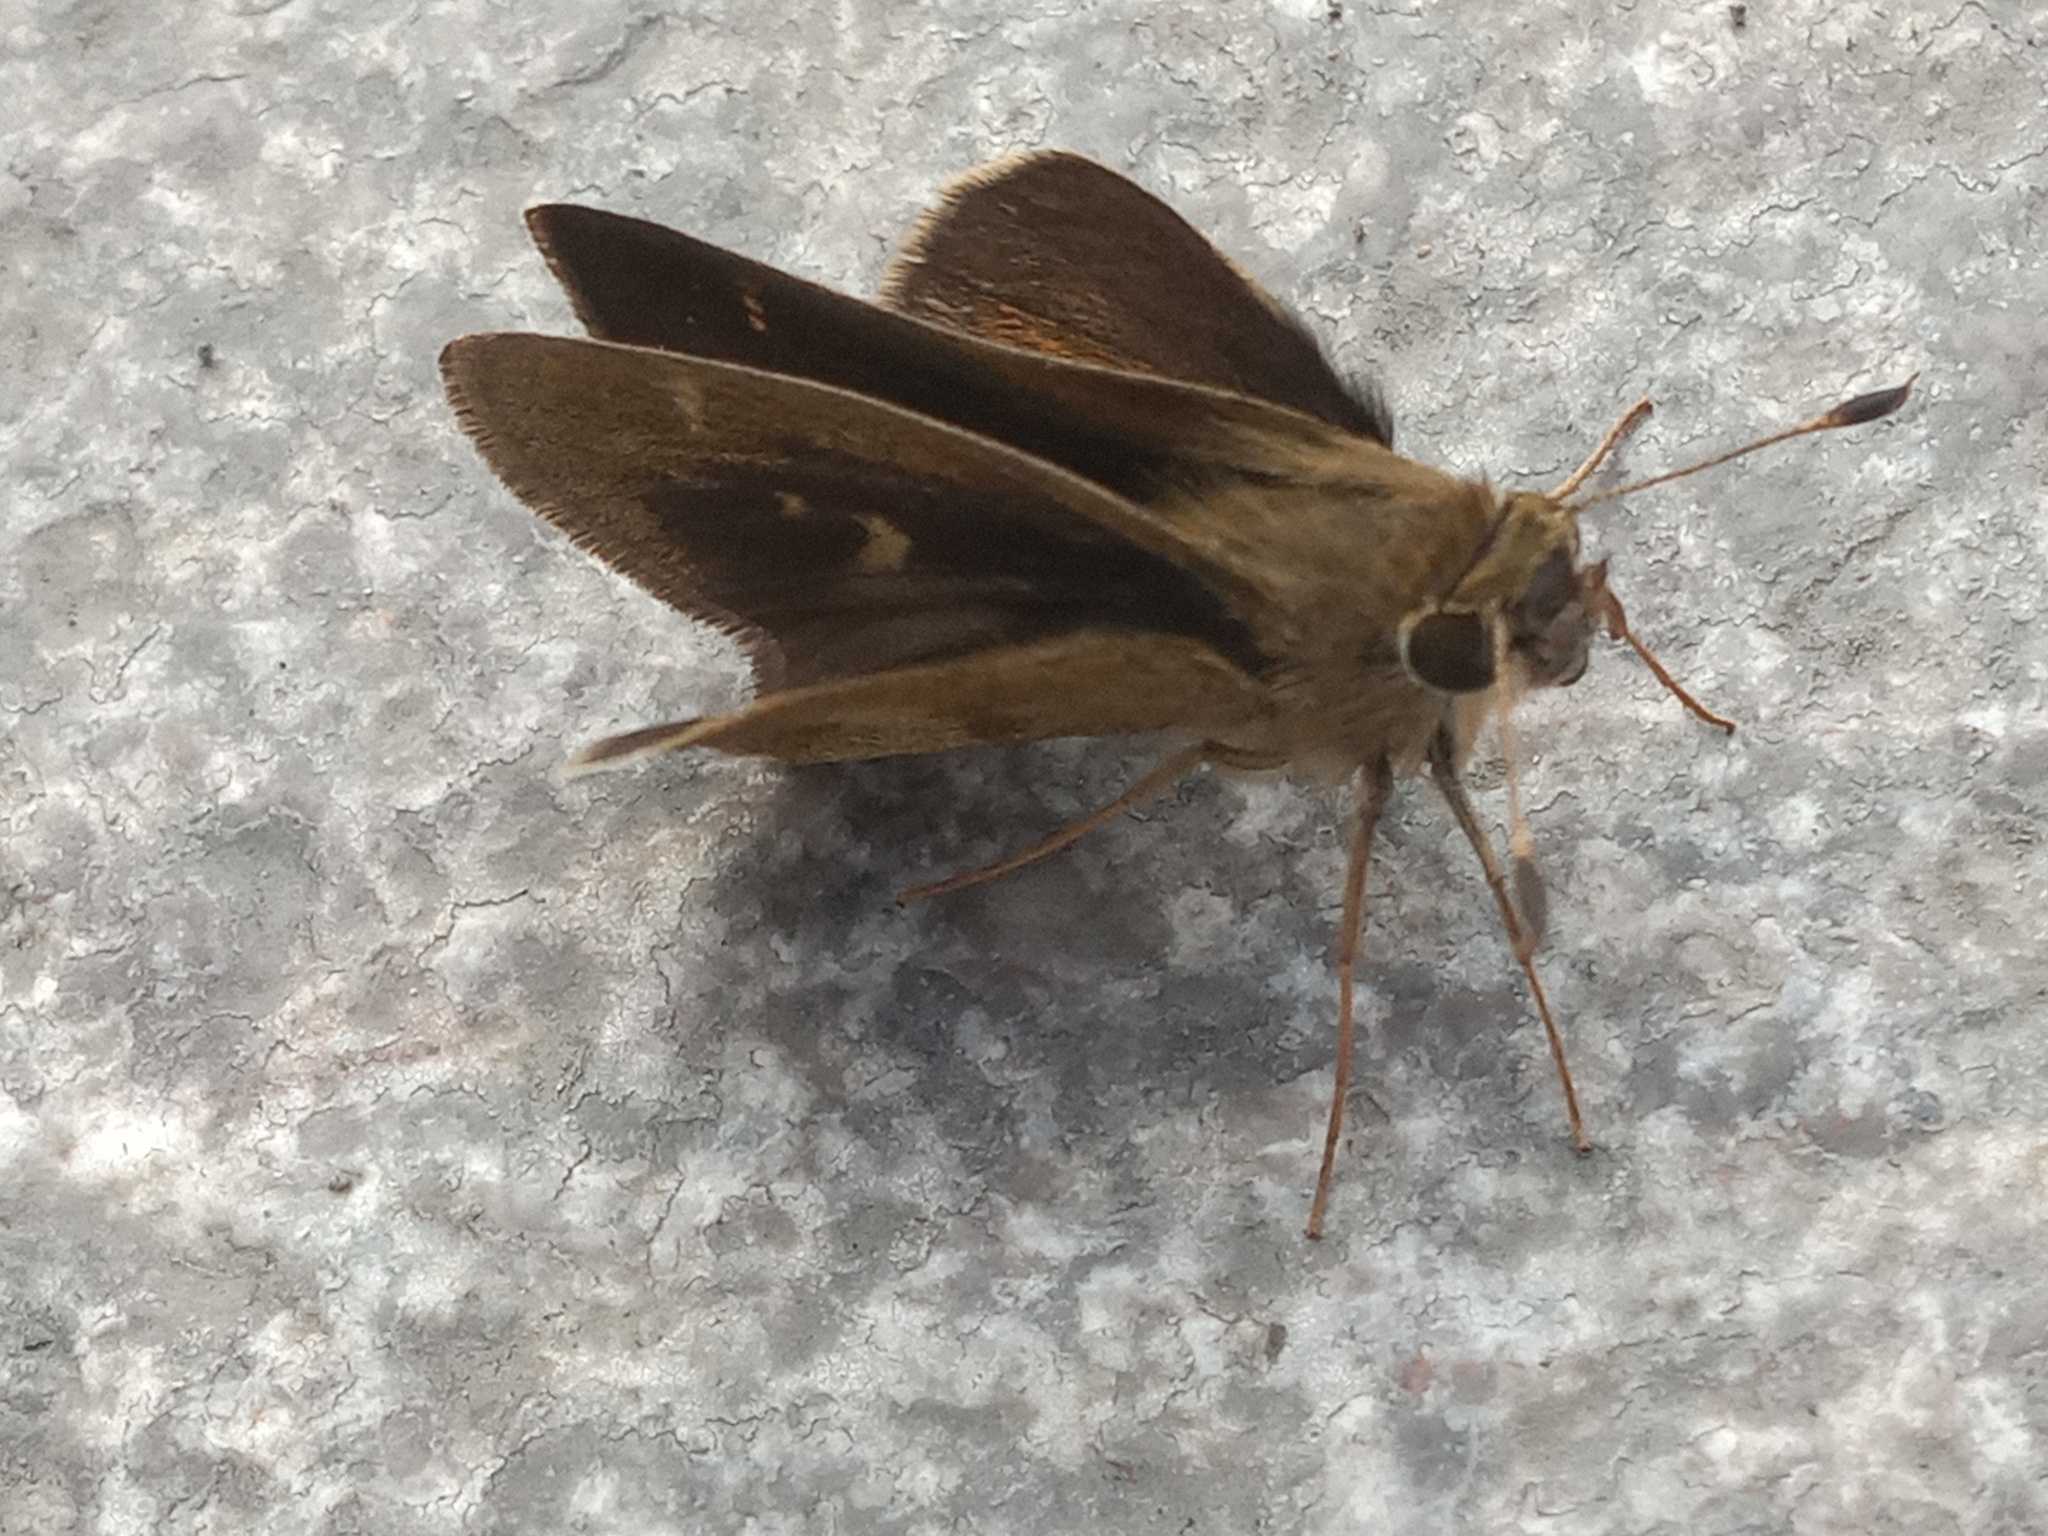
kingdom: Animalia
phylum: Arthropoda
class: Insecta
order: Lepidoptera
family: Hesperiidae
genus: Polites
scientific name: Polites vibex
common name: Whirlabout
